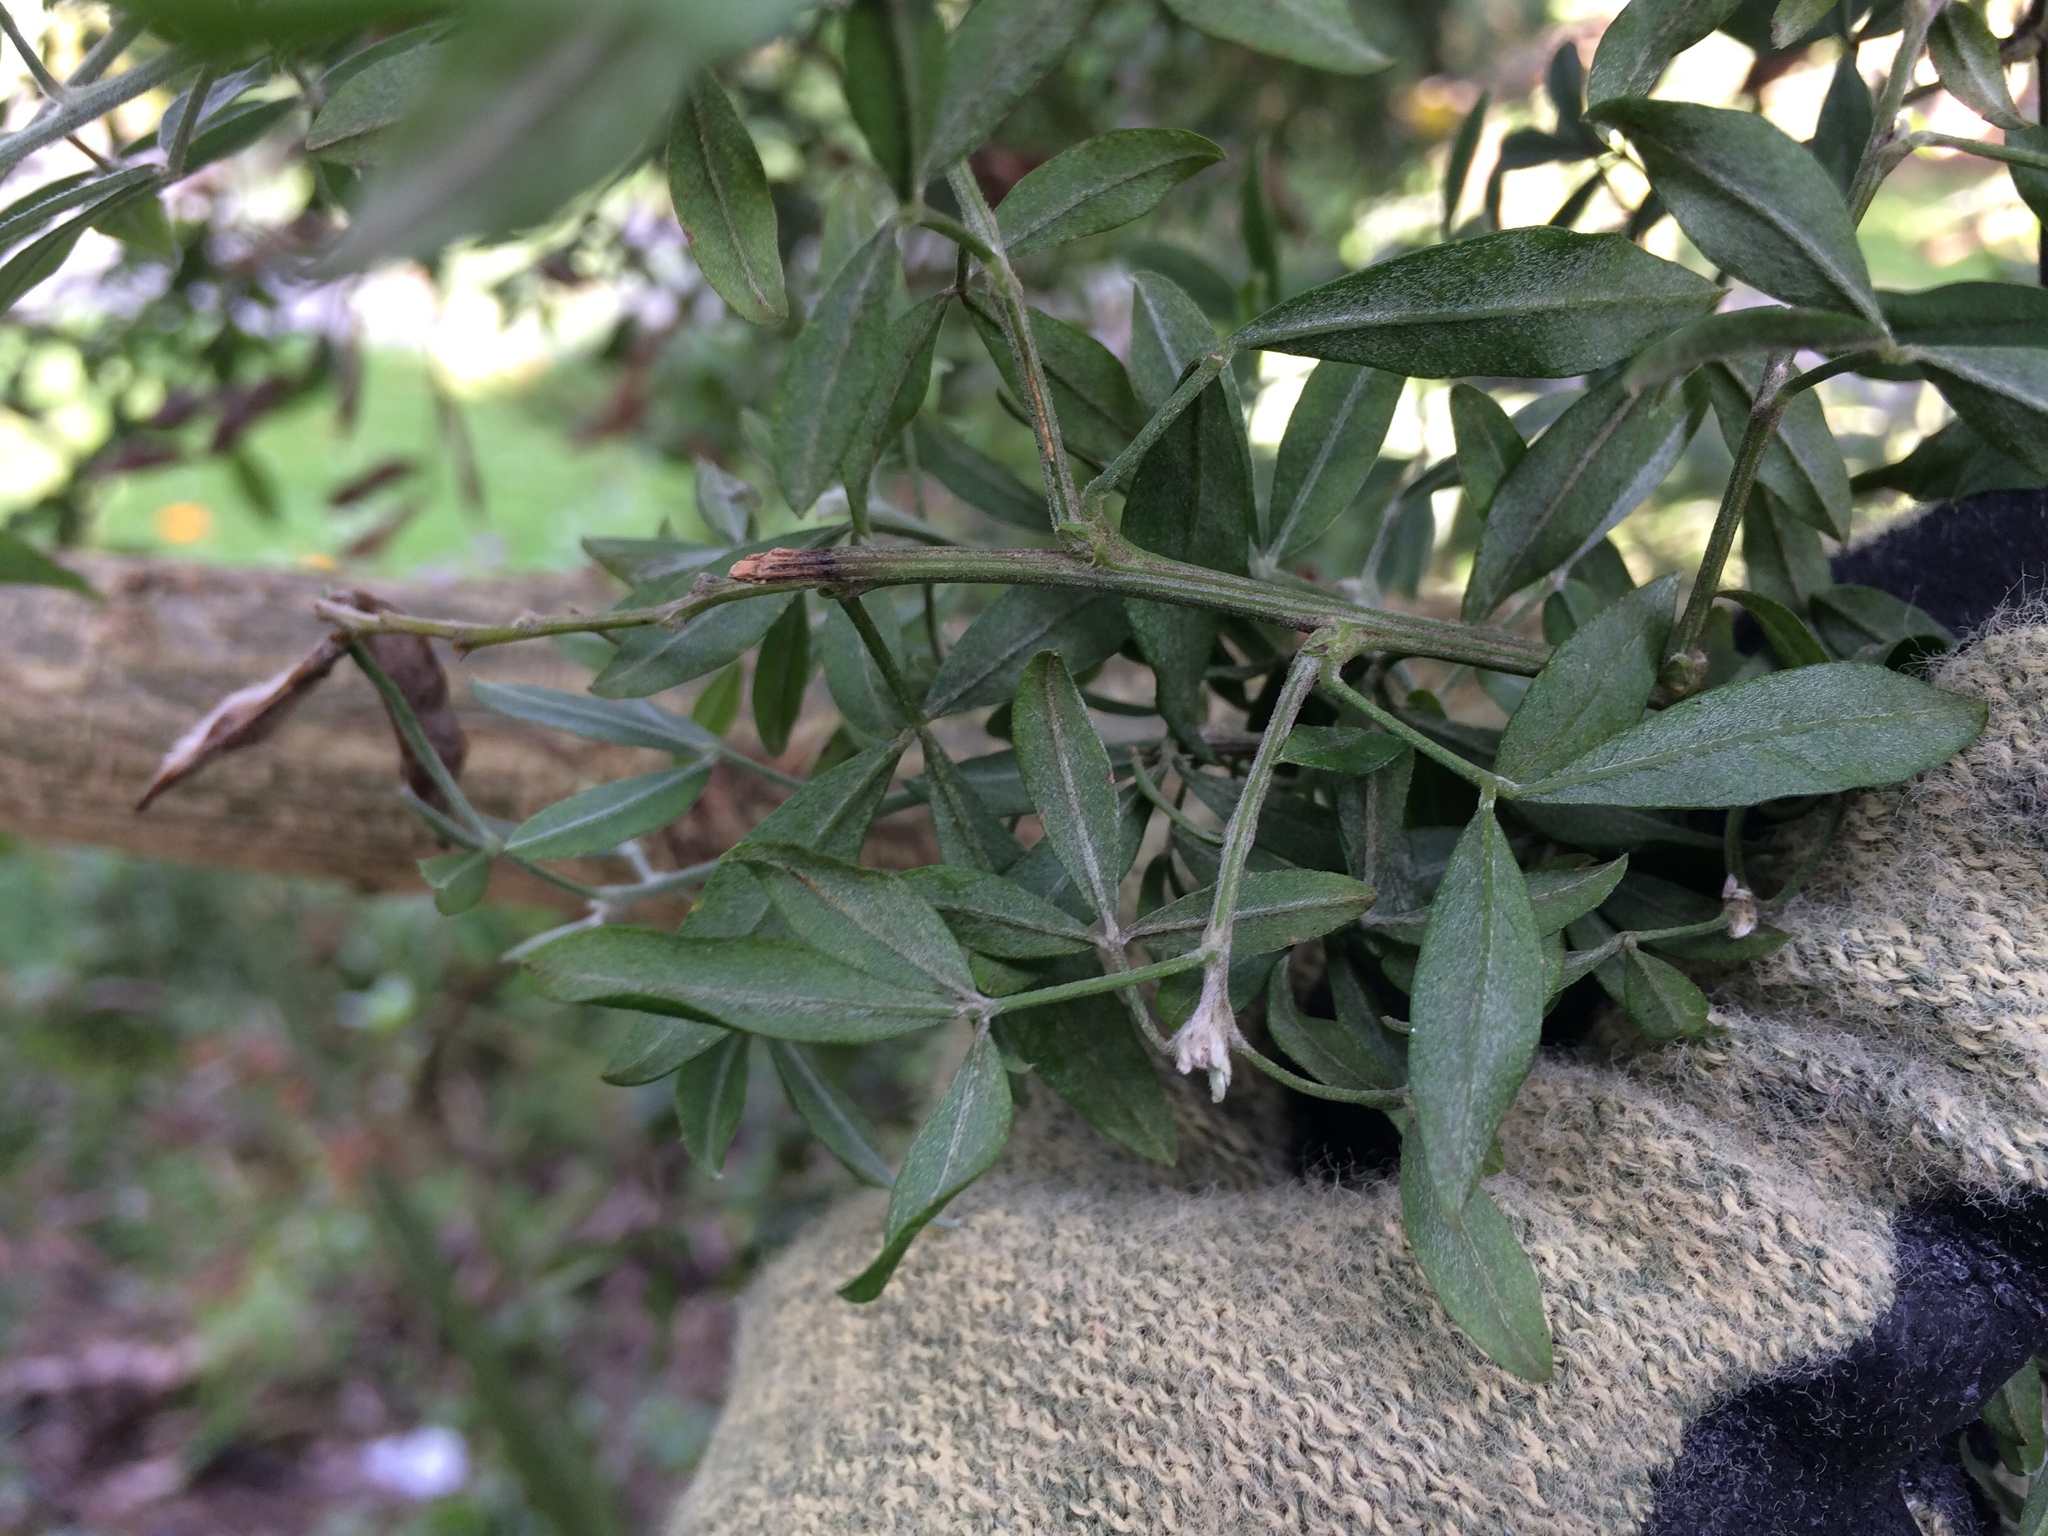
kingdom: Plantae
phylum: Tracheophyta
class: Magnoliopsida
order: Fabales
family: Fabaceae
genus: Genista
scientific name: Genista stenopetala
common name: Leafy broom
